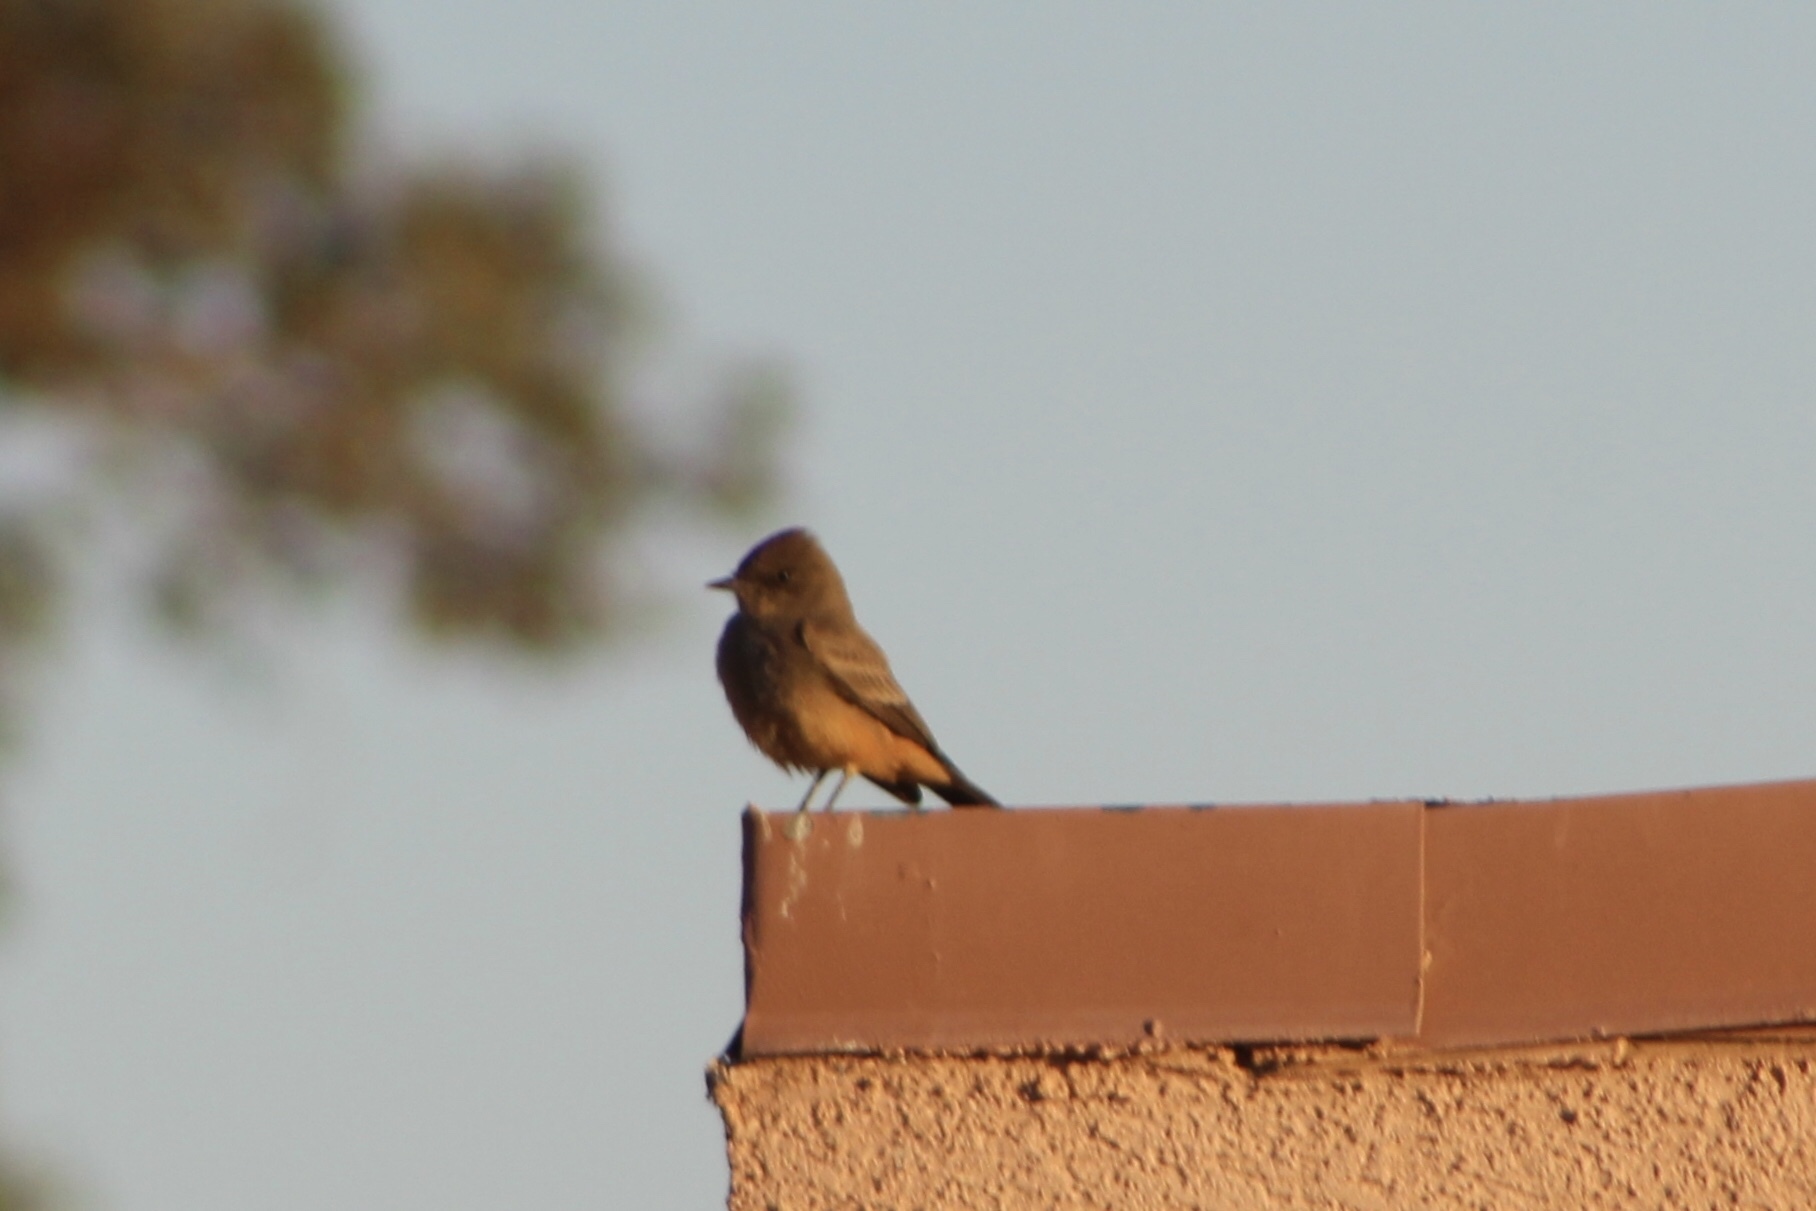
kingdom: Animalia
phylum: Chordata
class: Aves
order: Passeriformes
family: Tyrannidae
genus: Sayornis
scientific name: Sayornis saya
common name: Say's phoebe
